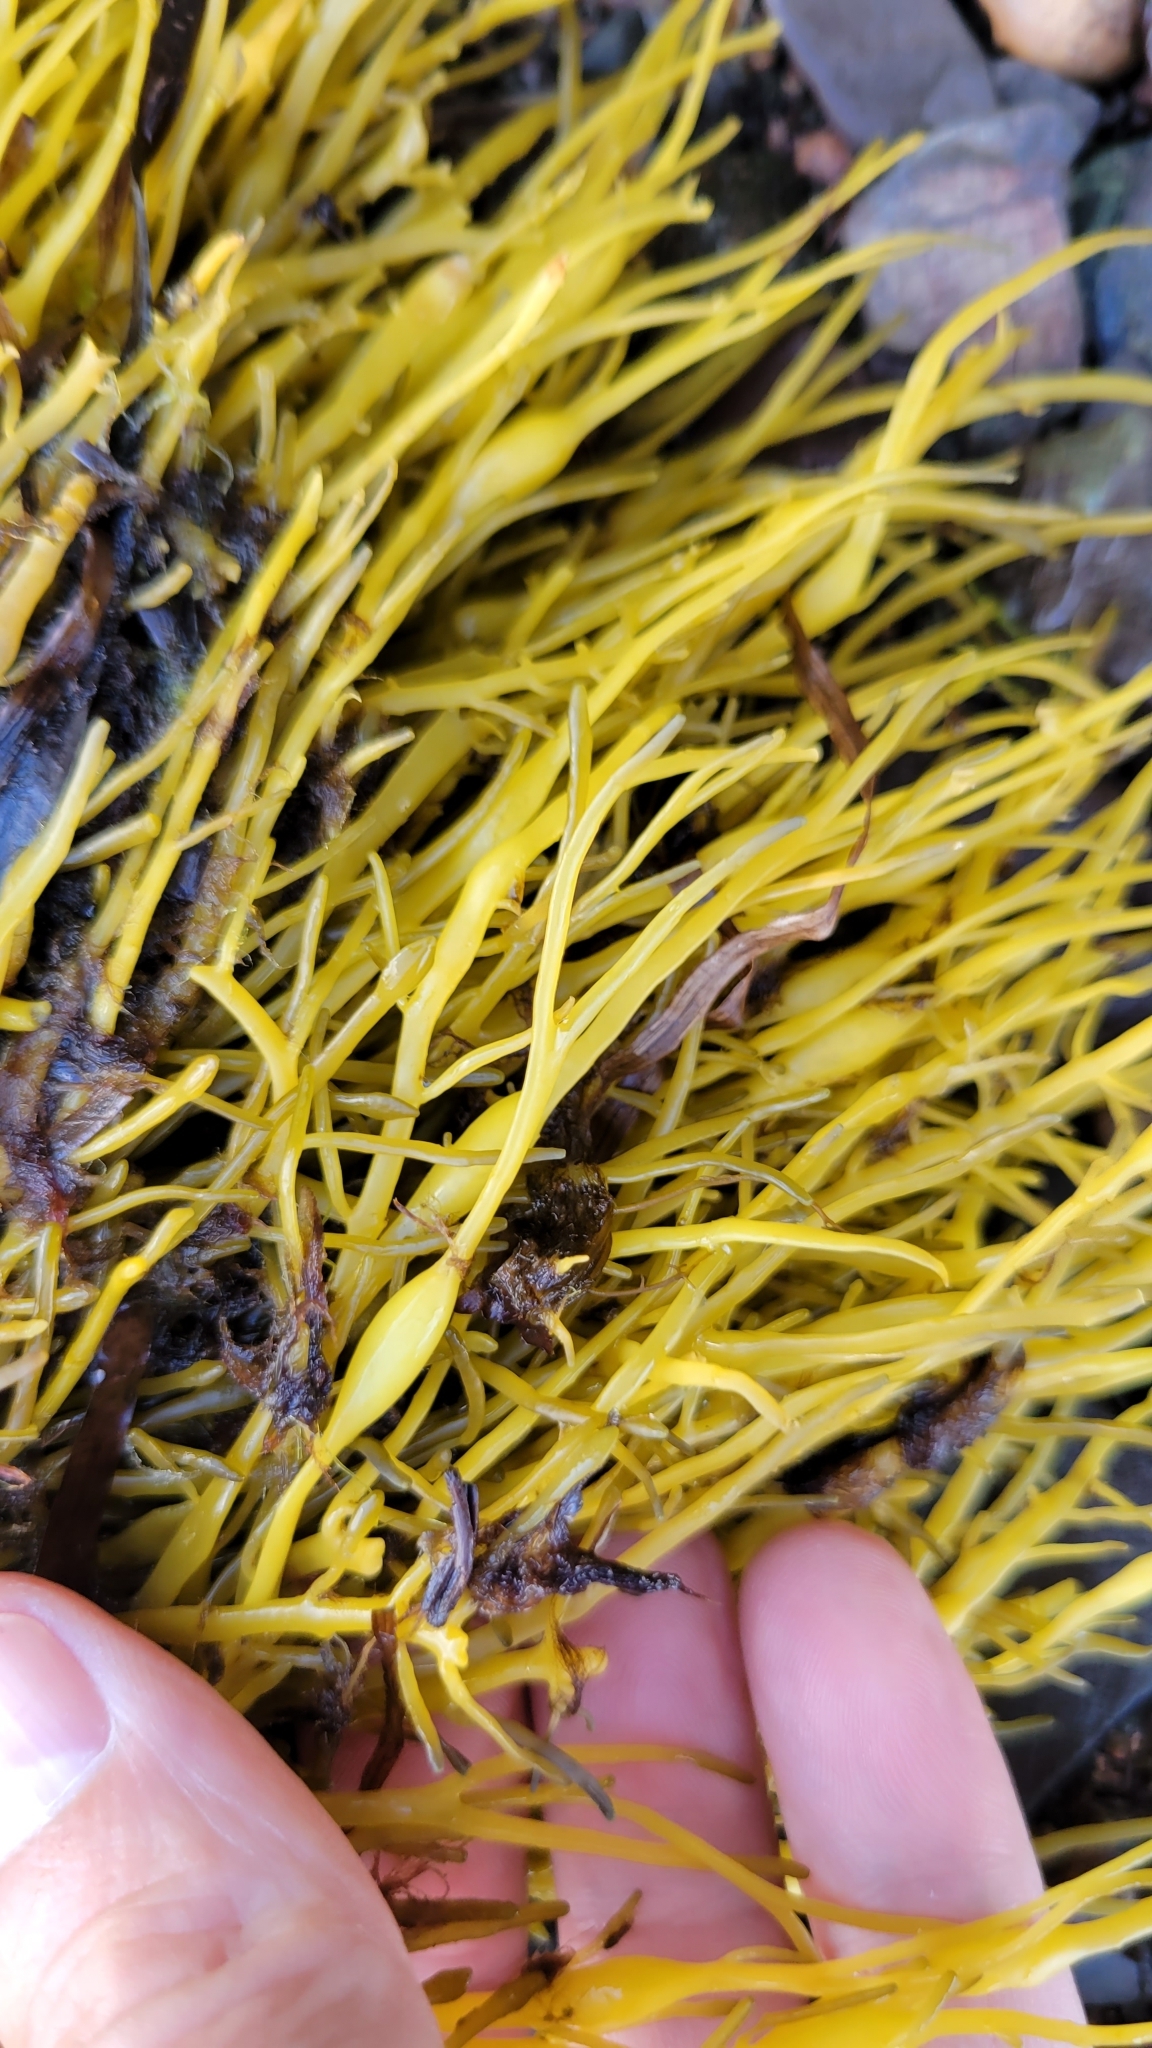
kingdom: Chromista
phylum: Ochrophyta
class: Phaeophyceae
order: Fucales
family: Fucaceae
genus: Ascophyllum
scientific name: Ascophyllum nodosum
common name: Knotted wrack
